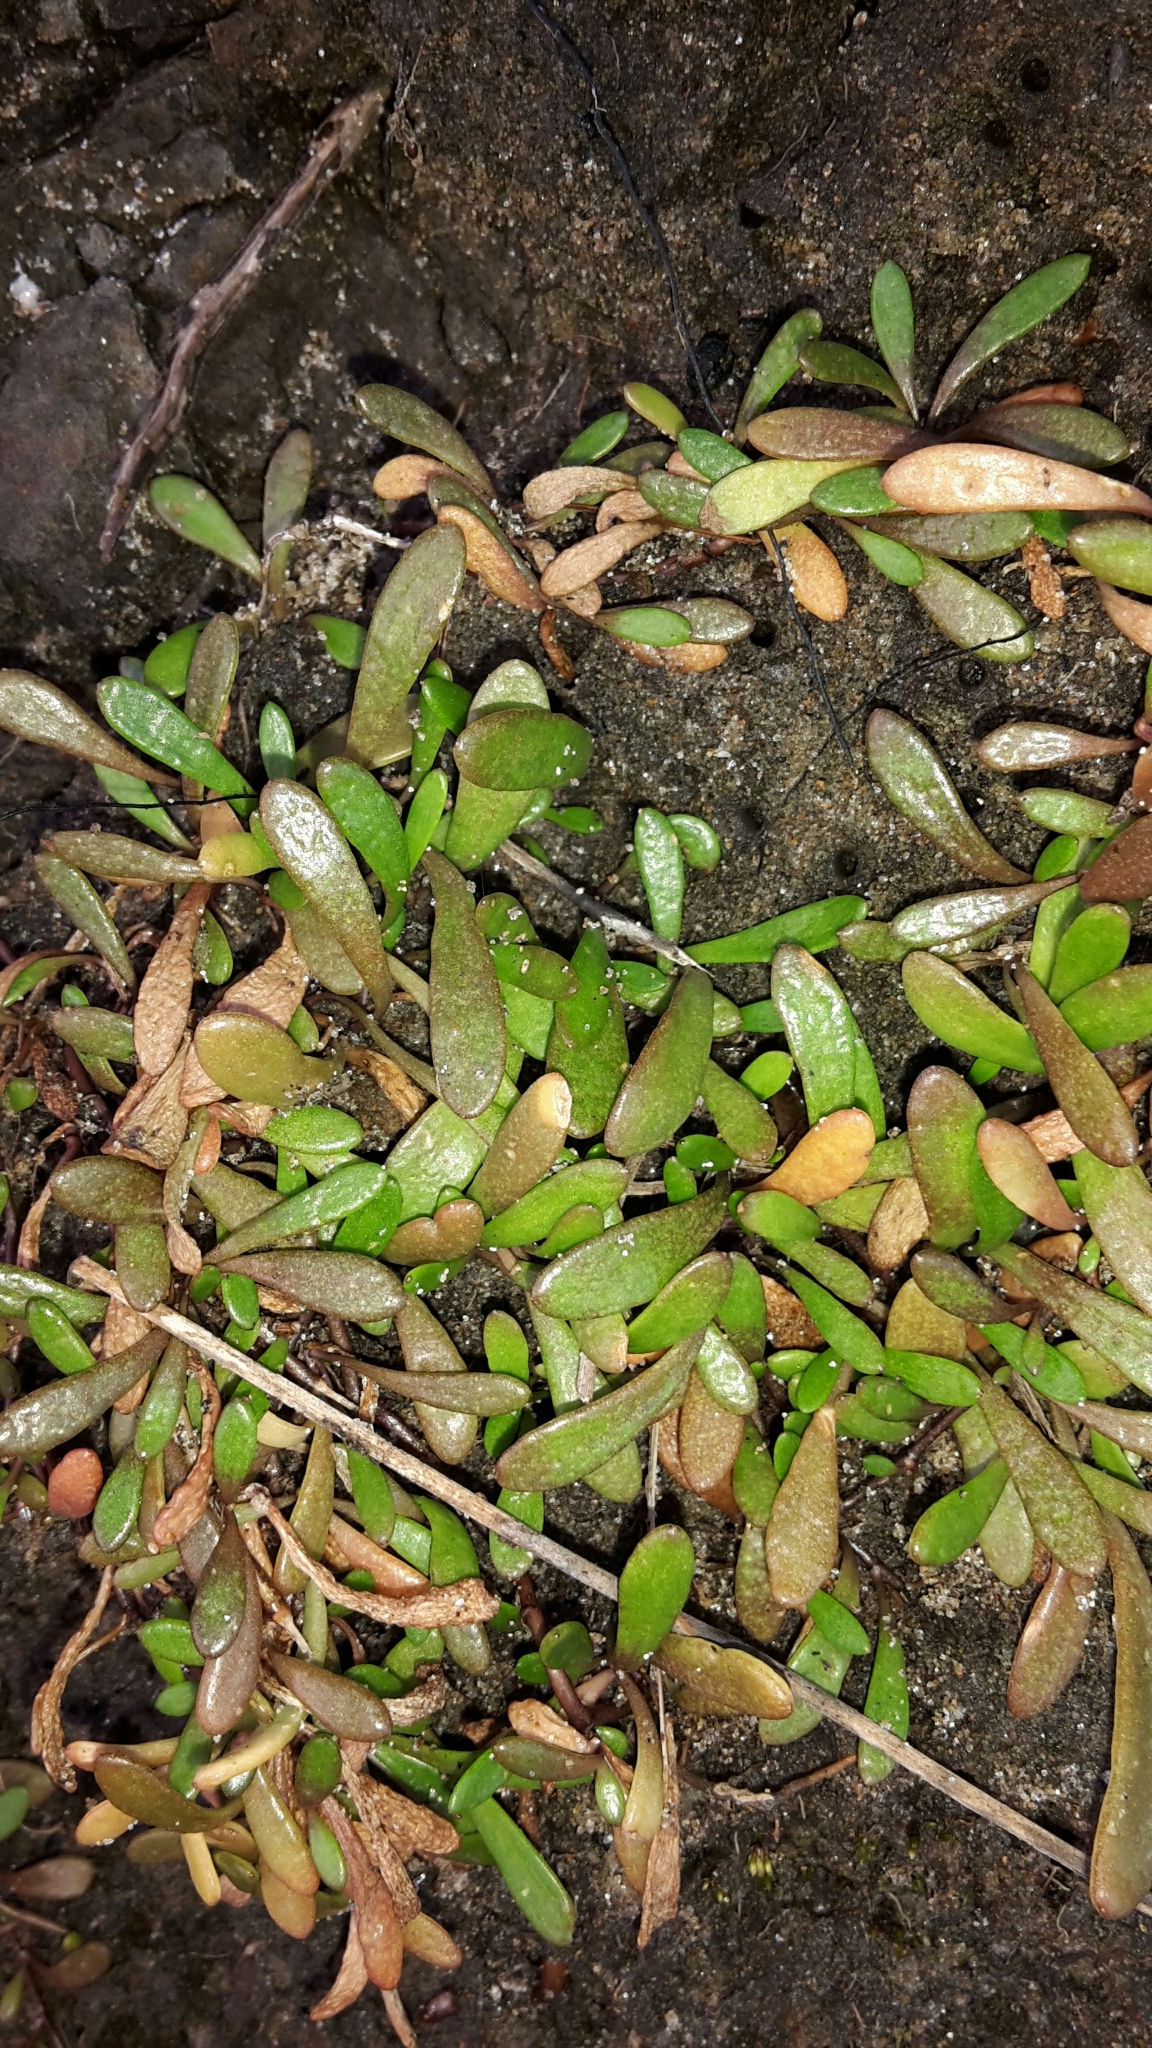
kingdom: Plantae
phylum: Tracheophyta
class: Magnoliopsida
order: Asterales
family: Goodeniaceae
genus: Goodenia
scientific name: Goodenia radicans
